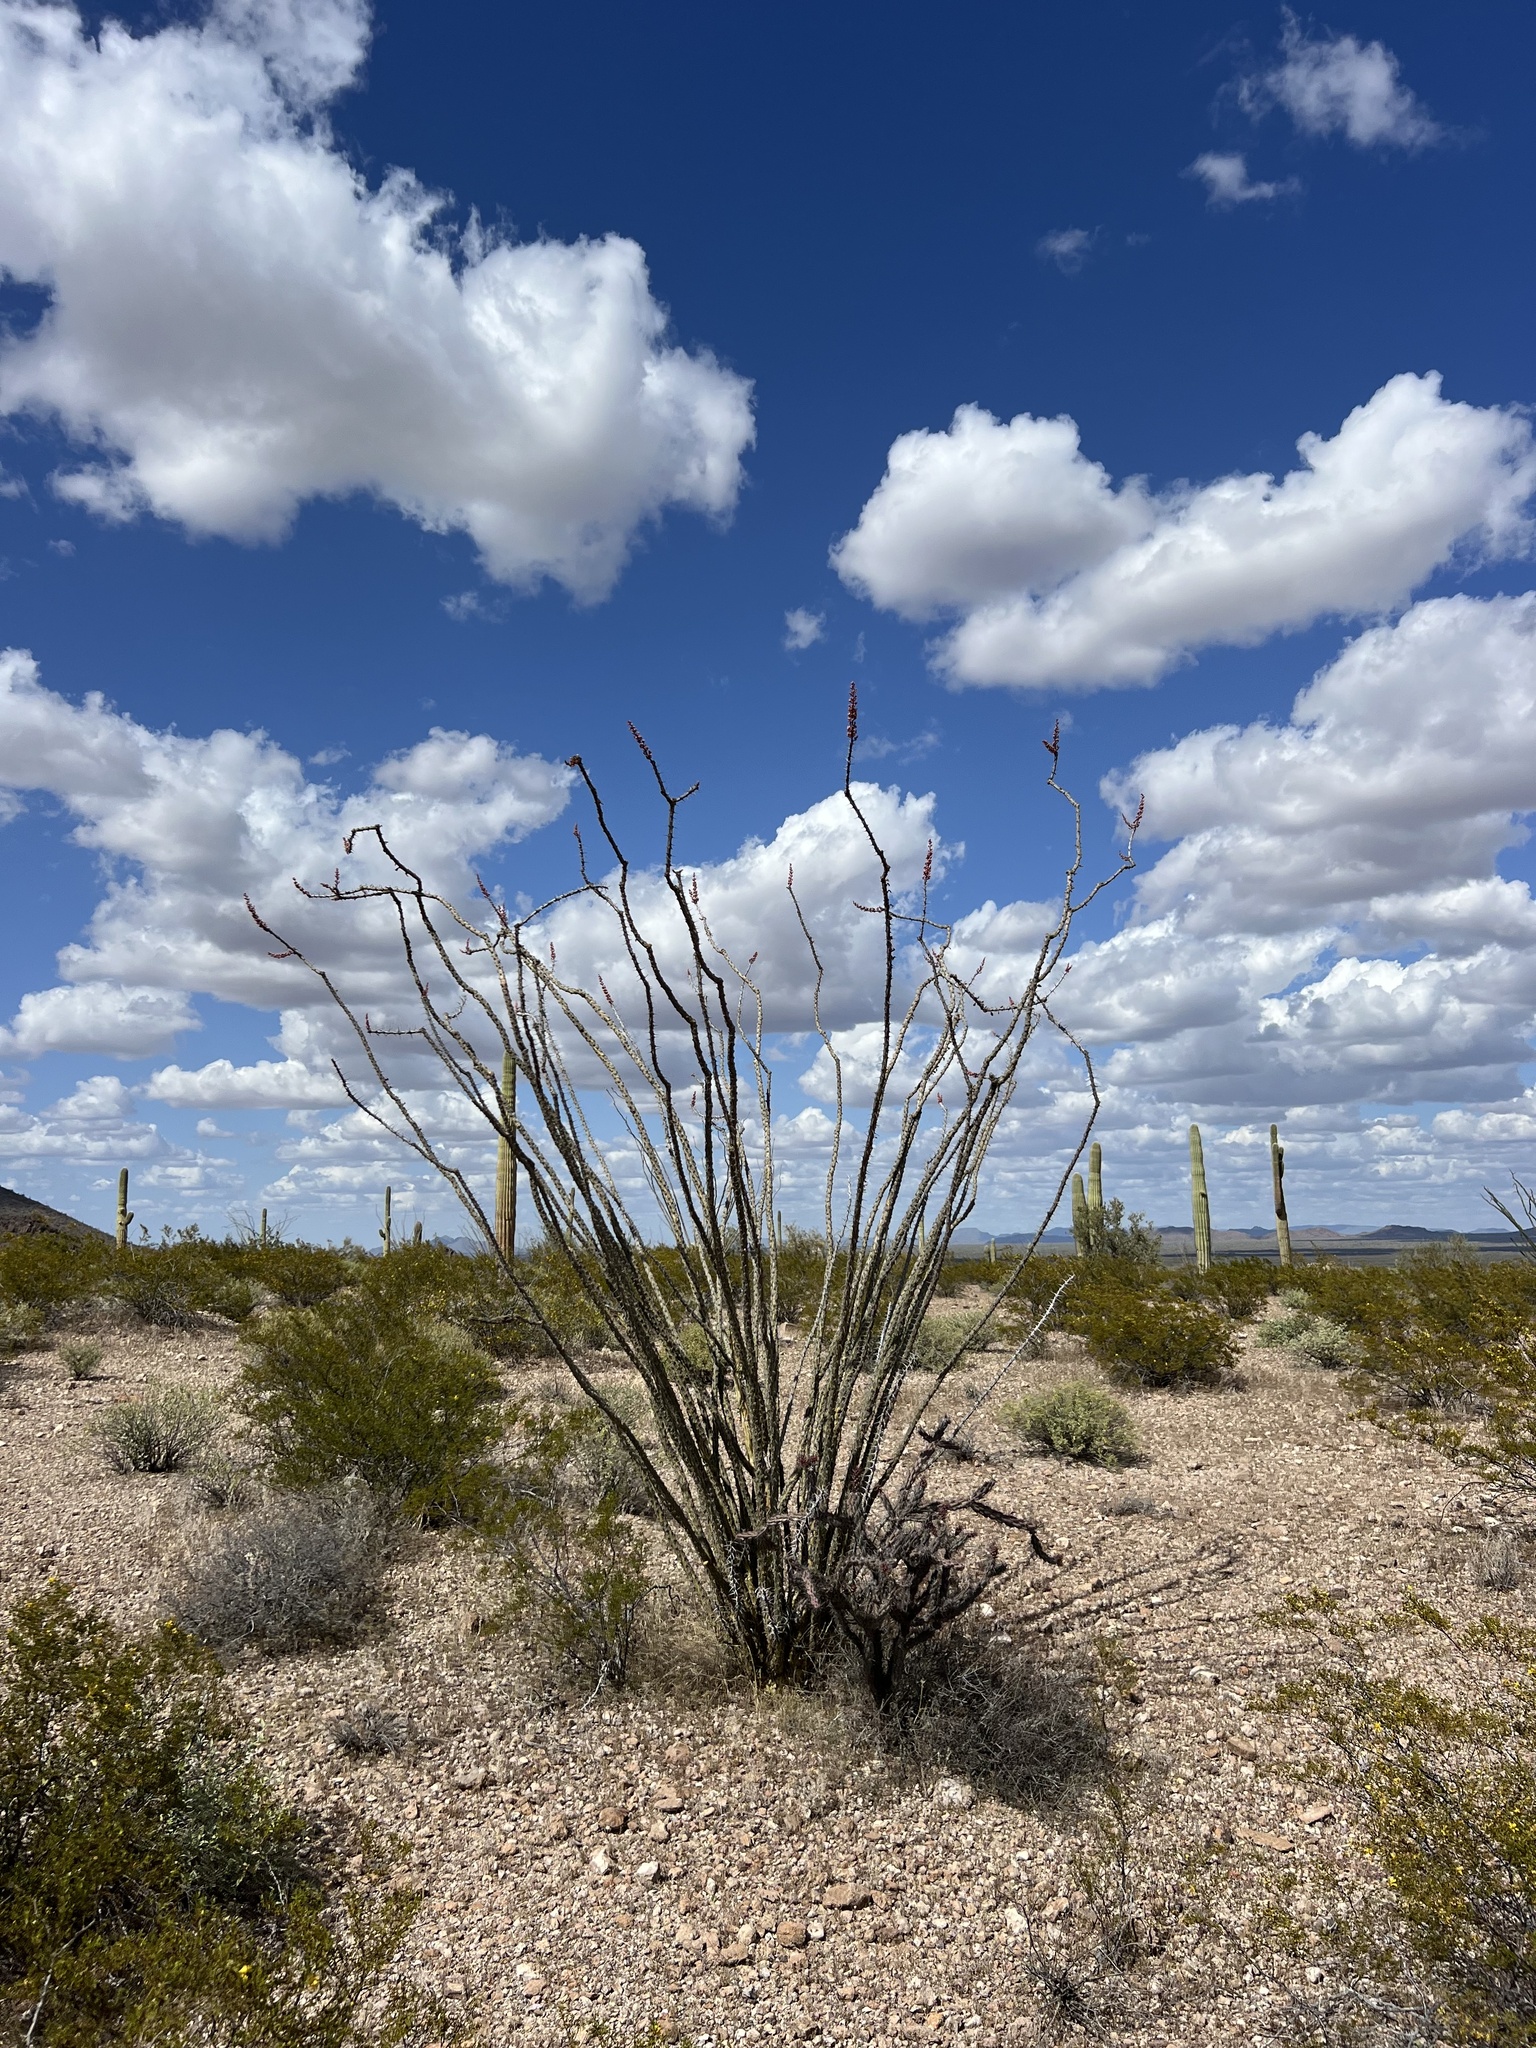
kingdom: Plantae
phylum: Tracheophyta
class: Magnoliopsida
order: Ericales
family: Fouquieriaceae
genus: Fouquieria
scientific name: Fouquieria splendens
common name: Vine-cactus
